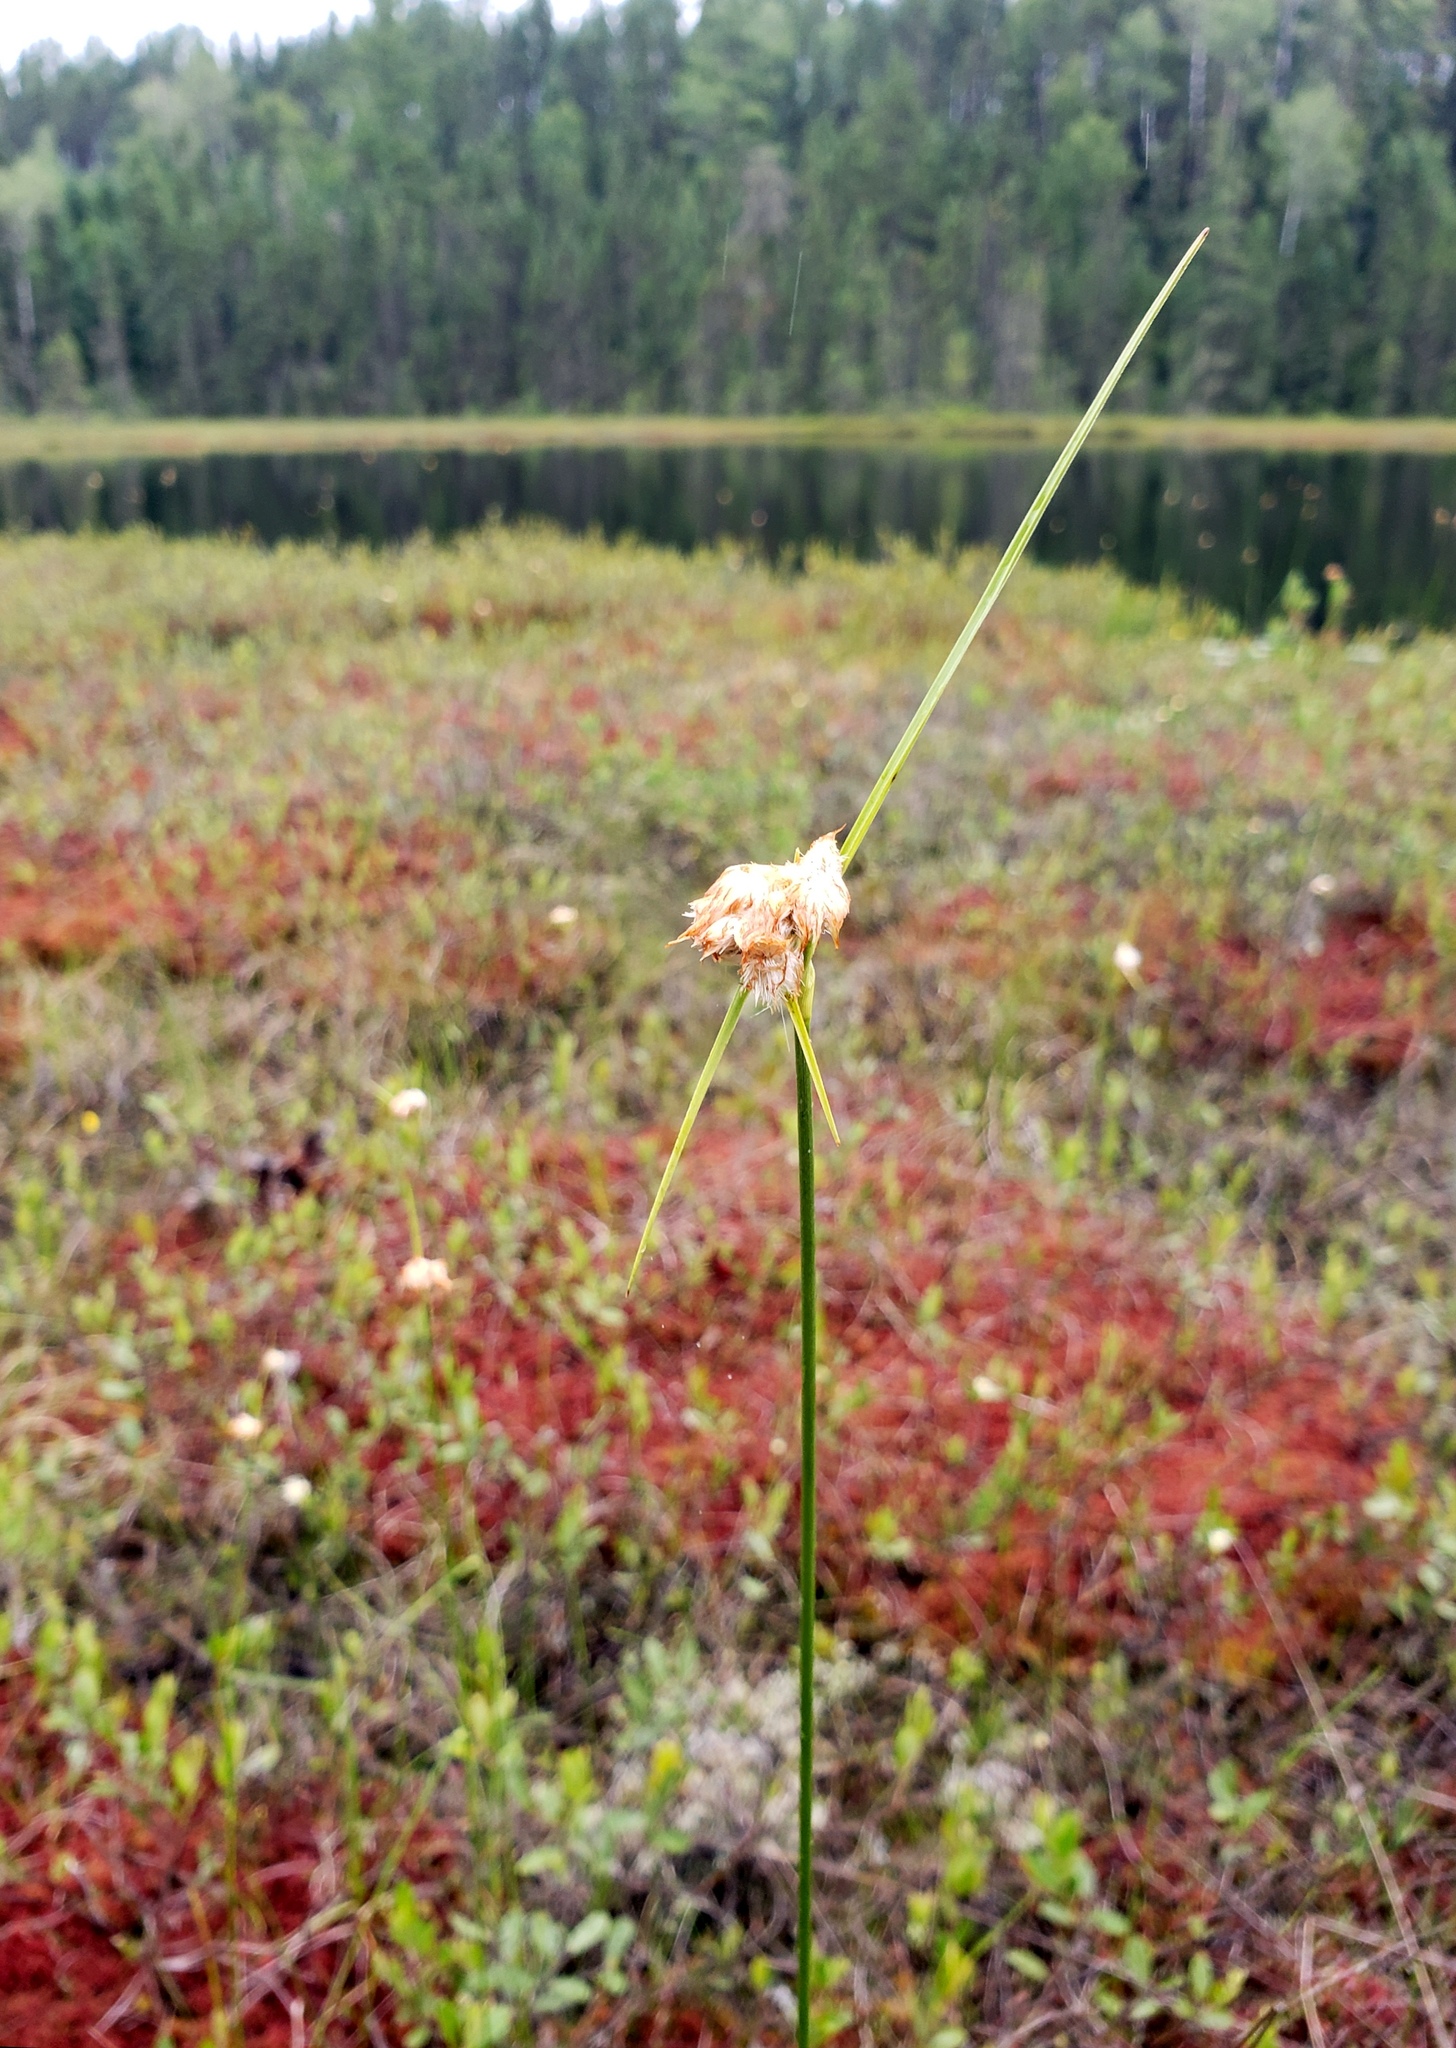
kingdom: Plantae
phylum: Tracheophyta
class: Liliopsida
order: Poales
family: Cyperaceae
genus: Eriophorum
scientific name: Eriophorum virginicum
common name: Tawny cottongrass
